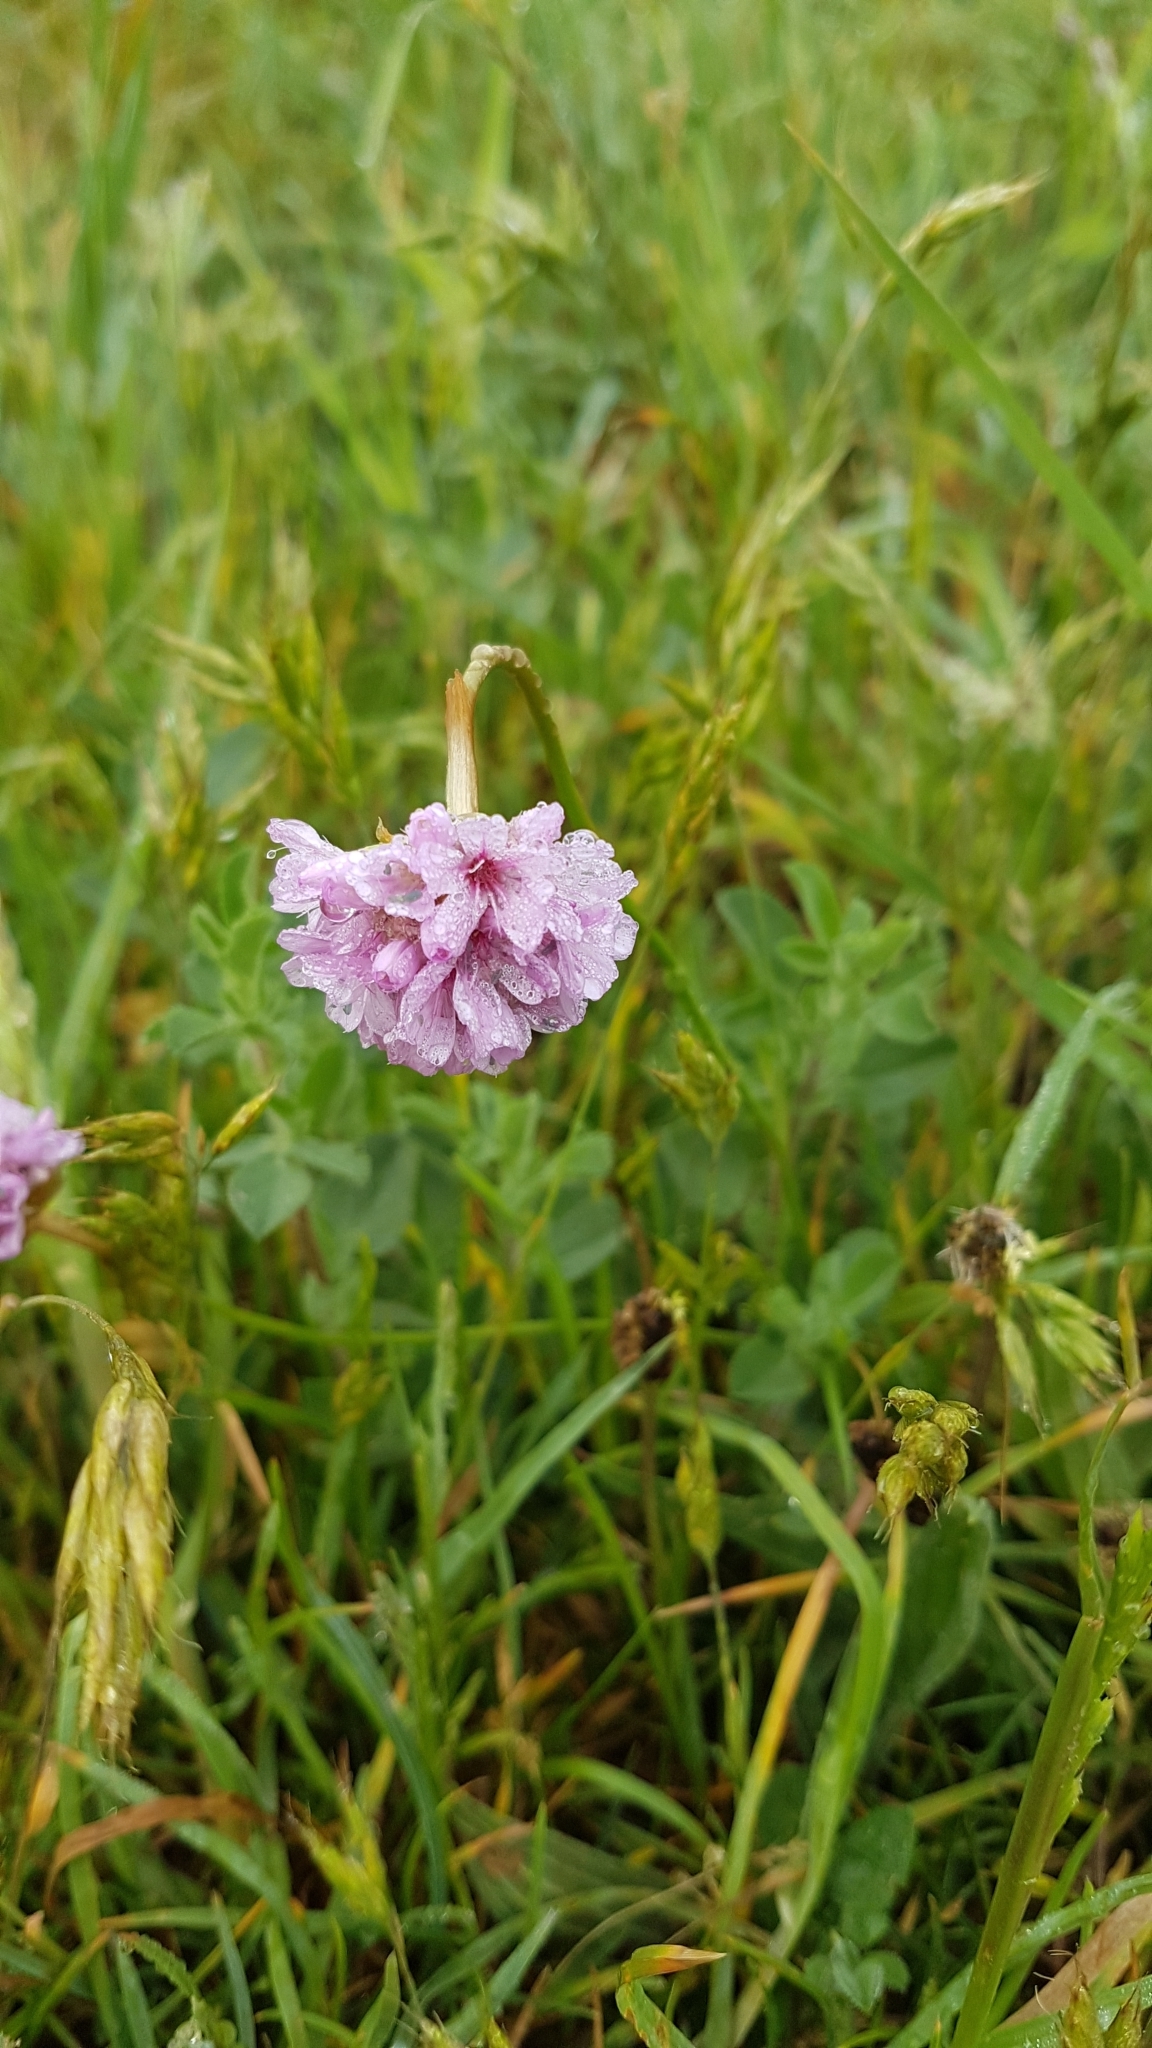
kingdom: Plantae
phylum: Tracheophyta
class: Magnoliopsida
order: Caryophyllales
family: Plumbaginaceae
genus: Armeria
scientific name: Armeria maritima
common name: Thrift
